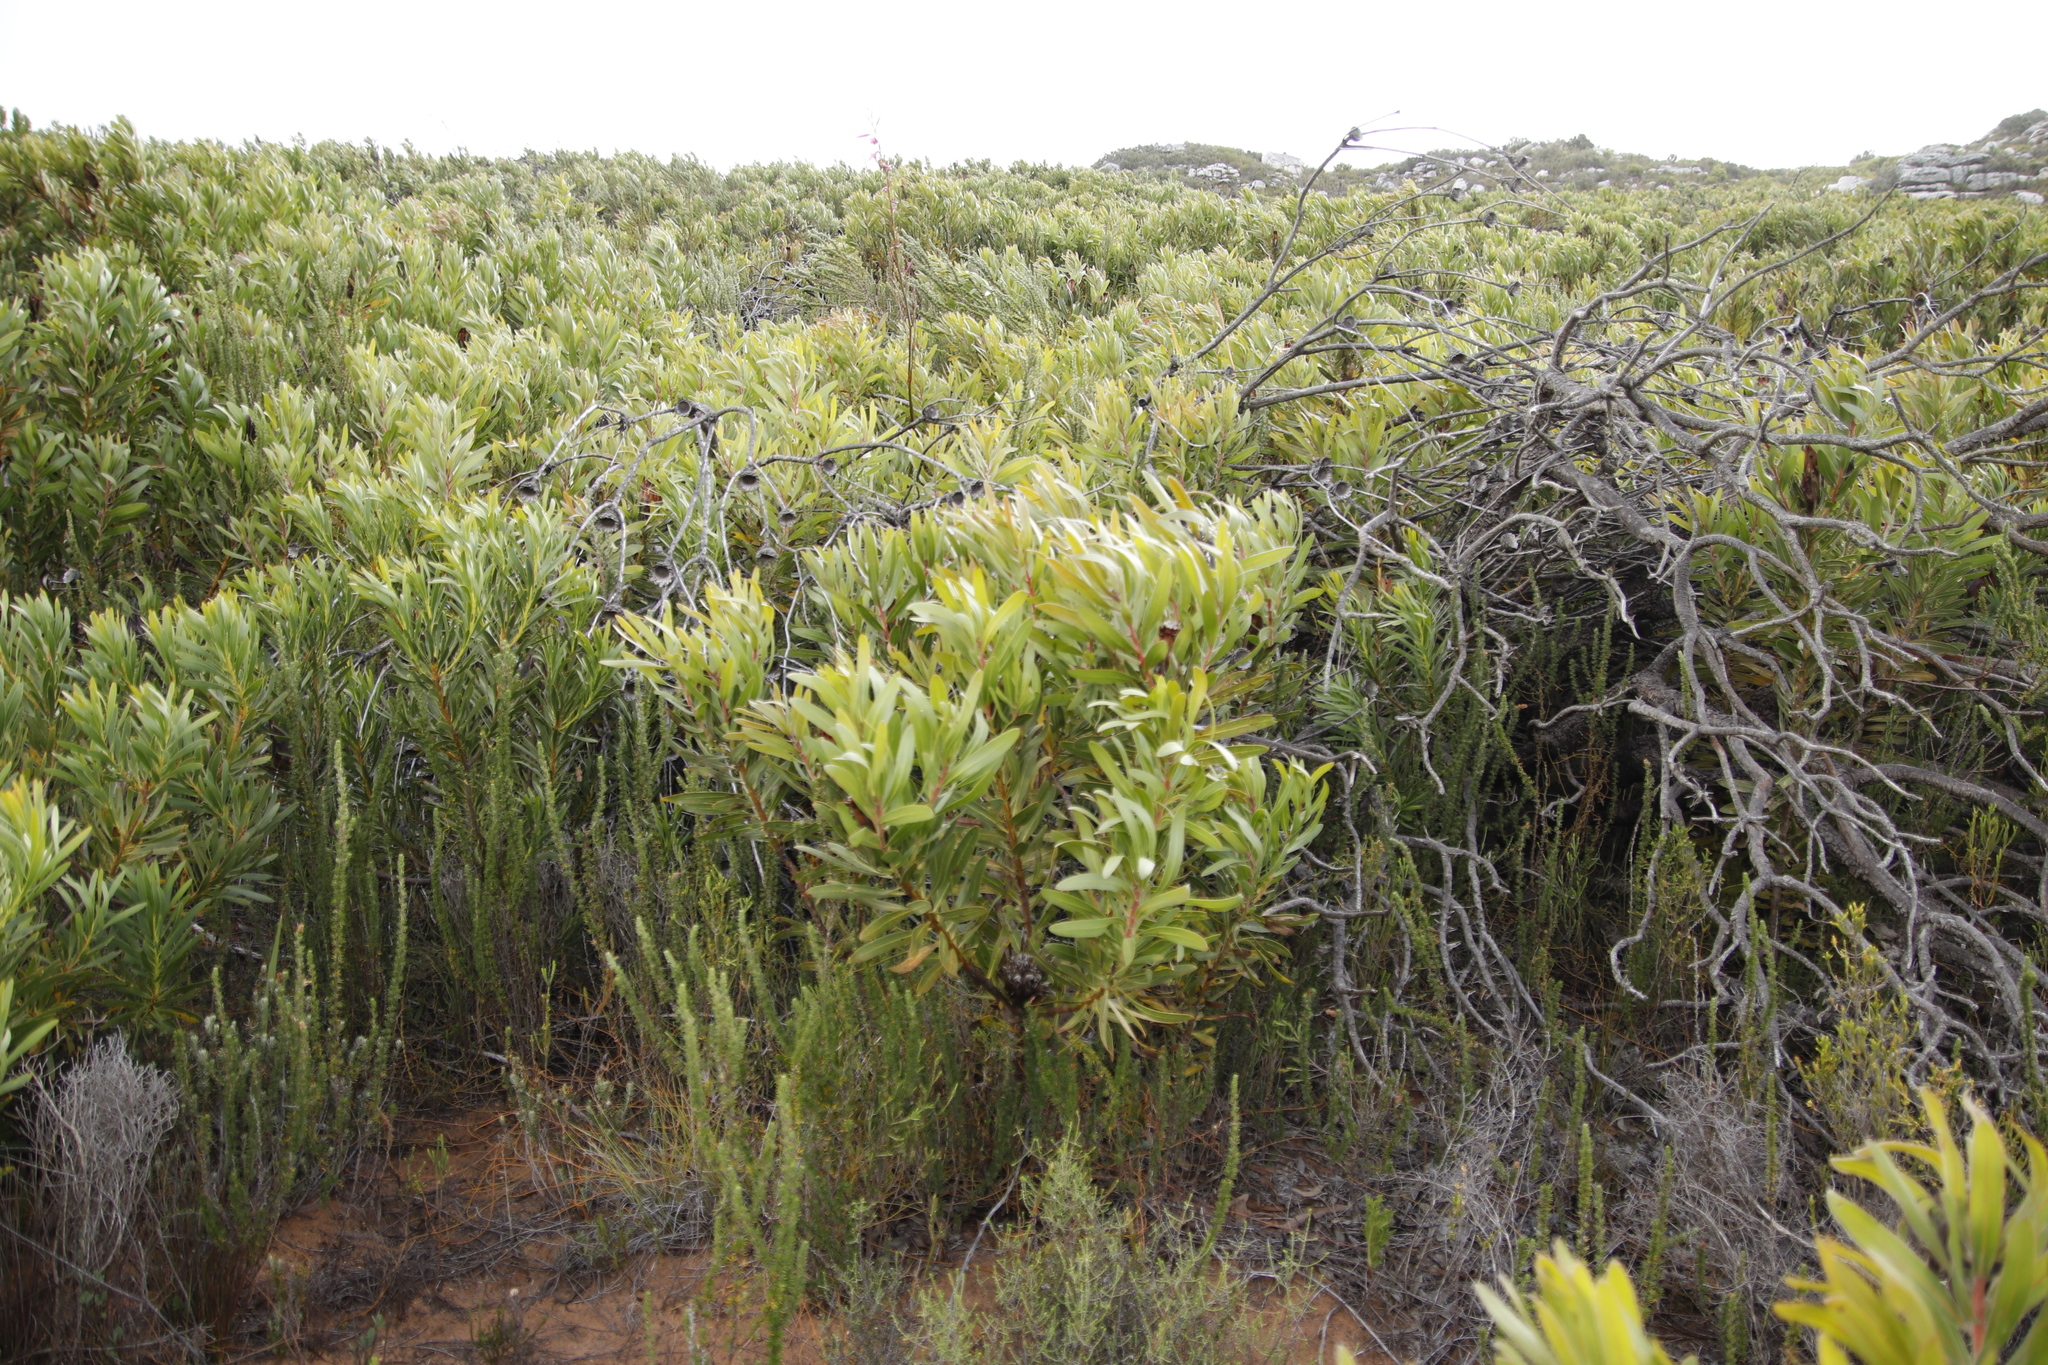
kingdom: Plantae
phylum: Tracheophyta
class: Magnoliopsida
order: Proteales
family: Proteaceae
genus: Protea
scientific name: Protea lepidocarpodendron
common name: Black-bearded protea
